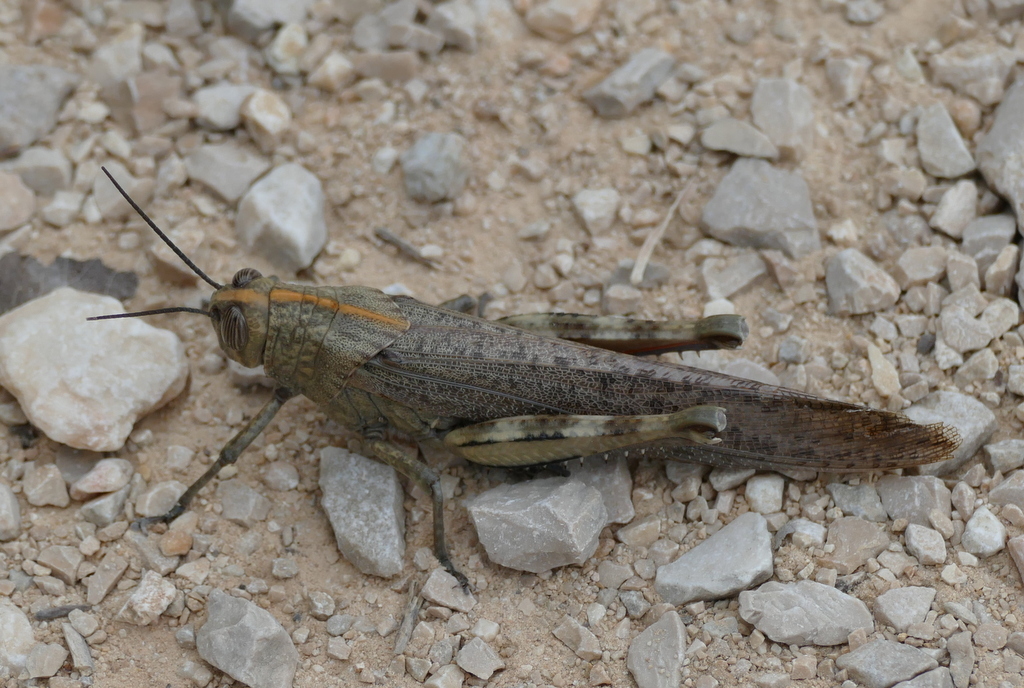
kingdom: Animalia
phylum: Arthropoda
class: Insecta
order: Orthoptera
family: Acrididae
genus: Anacridium
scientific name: Anacridium aegyptium
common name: Egyptian grasshopper
